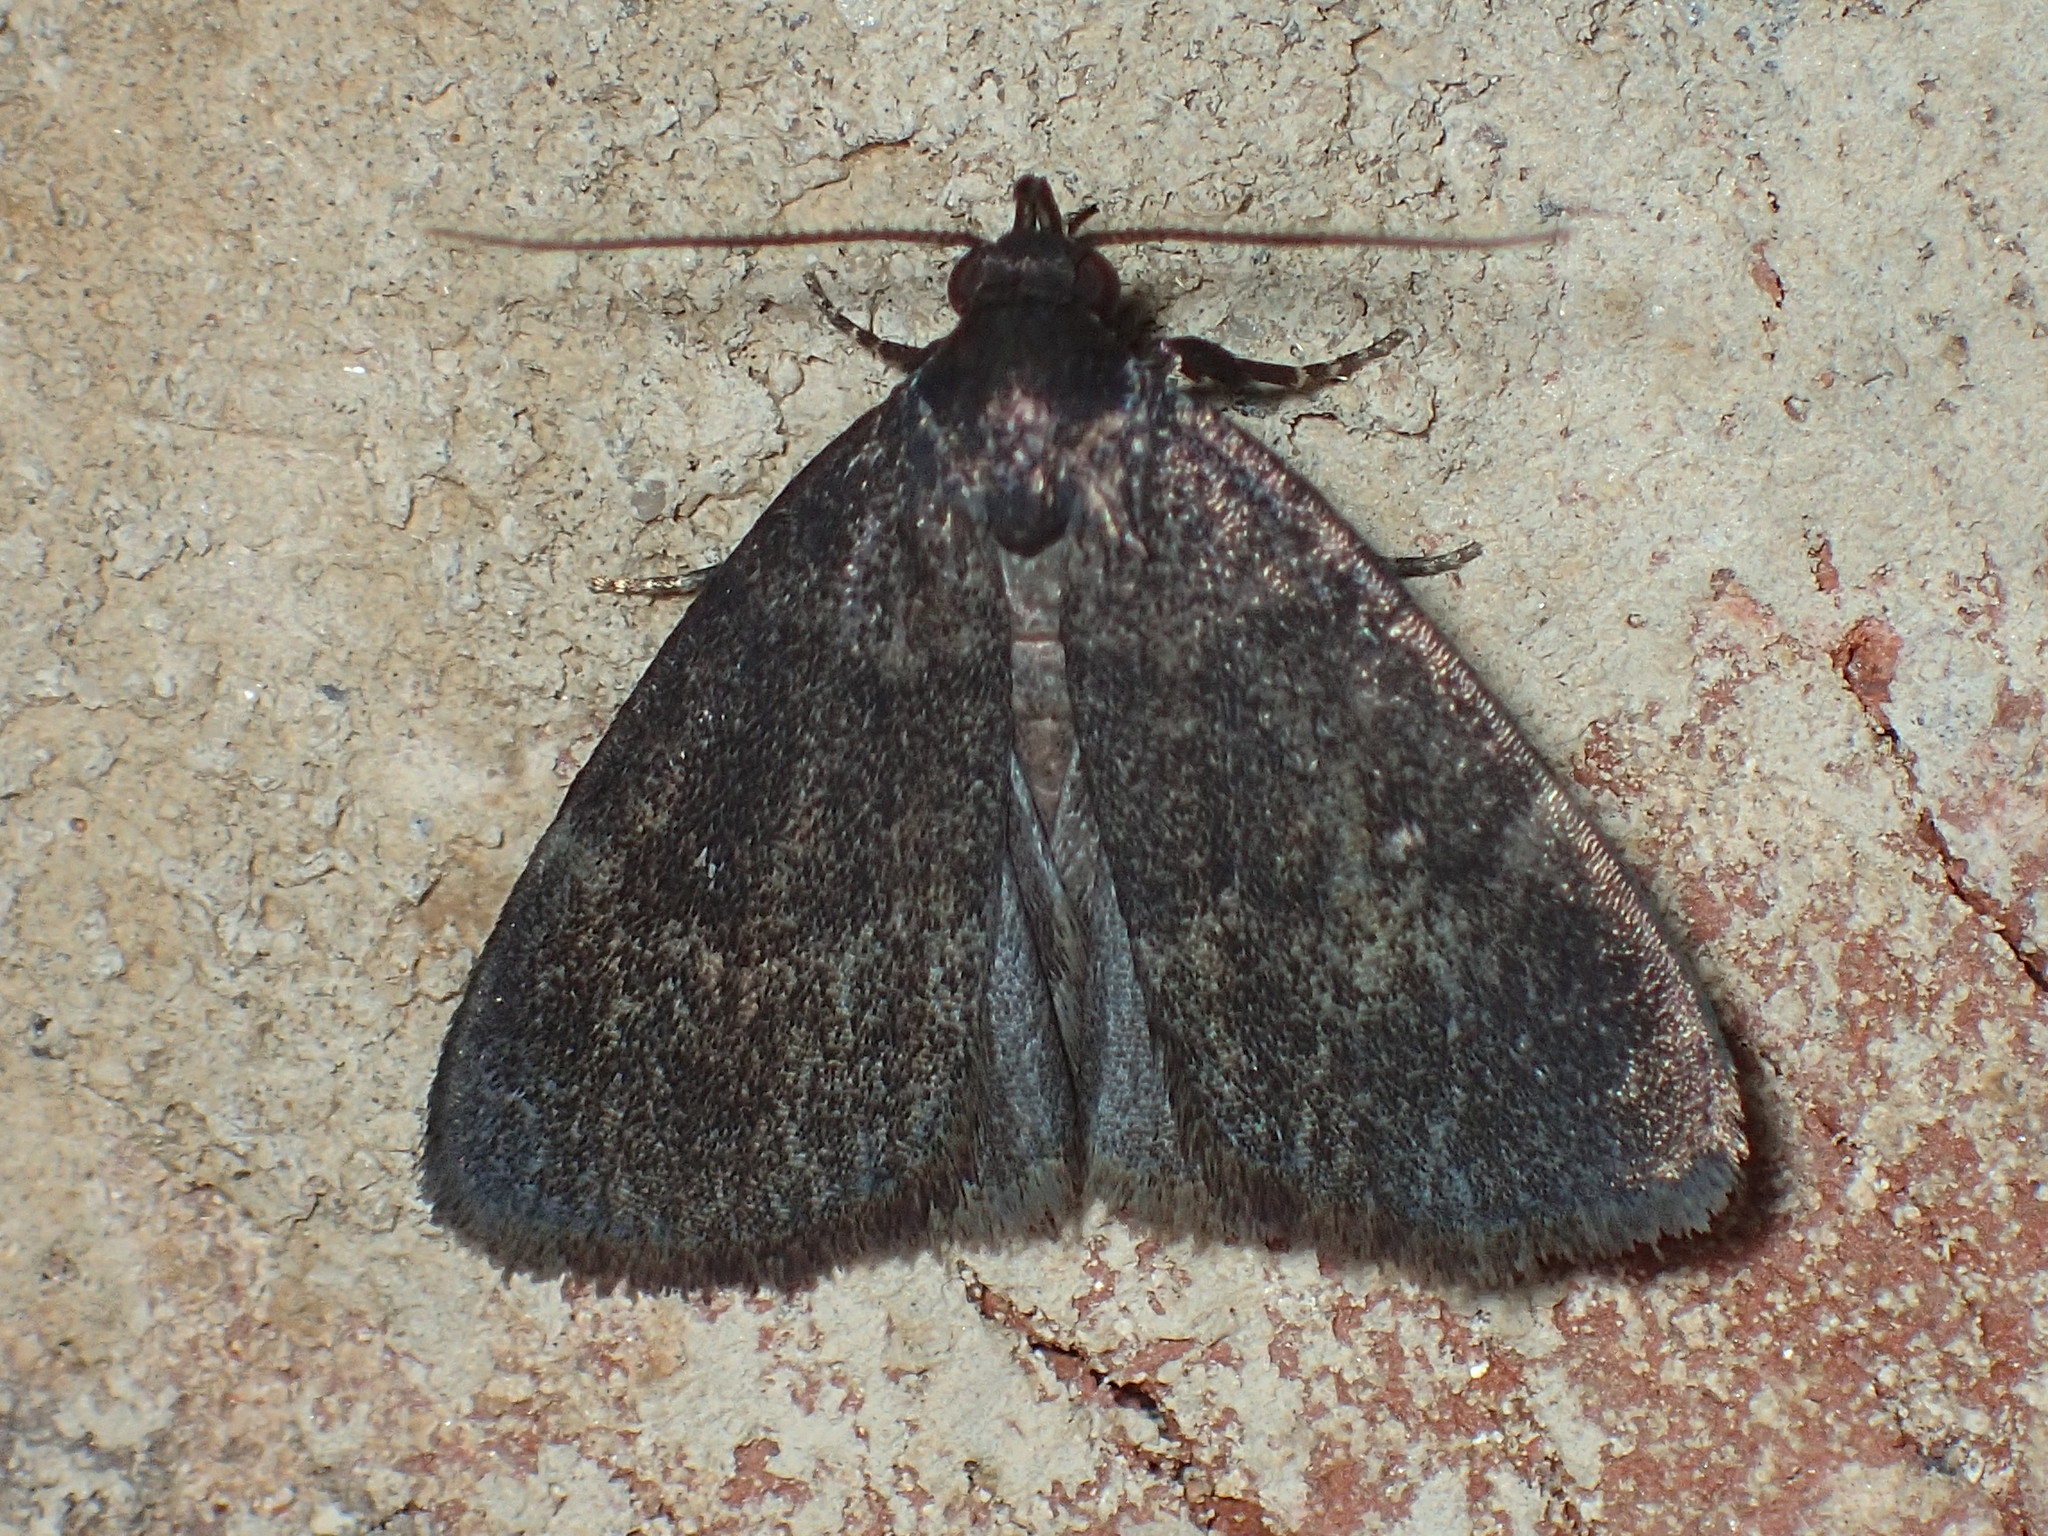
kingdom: Animalia
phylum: Arthropoda
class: Insecta
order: Lepidoptera
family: Erebidae
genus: Idia
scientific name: Idia rotundalis
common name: Rotund idia moth
